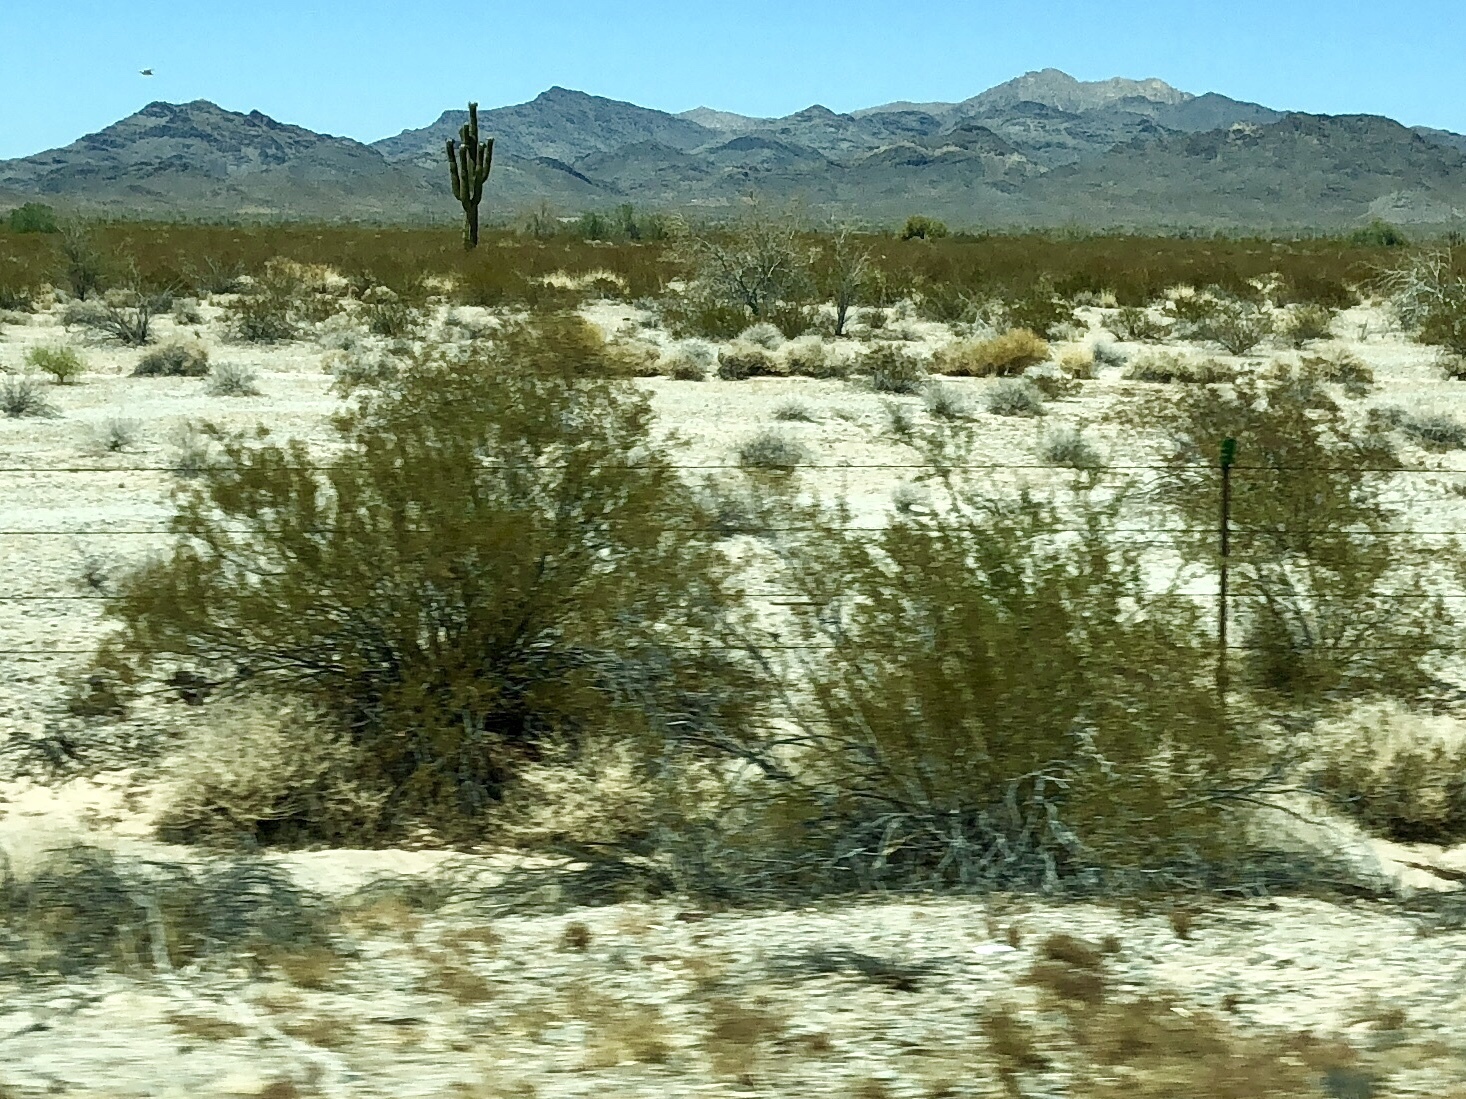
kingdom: Plantae
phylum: Tracheophyta
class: Magnoliopsida
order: Zygophyllales
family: Zygophyllaceae
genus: Larrea
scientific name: Larrea tridentata
